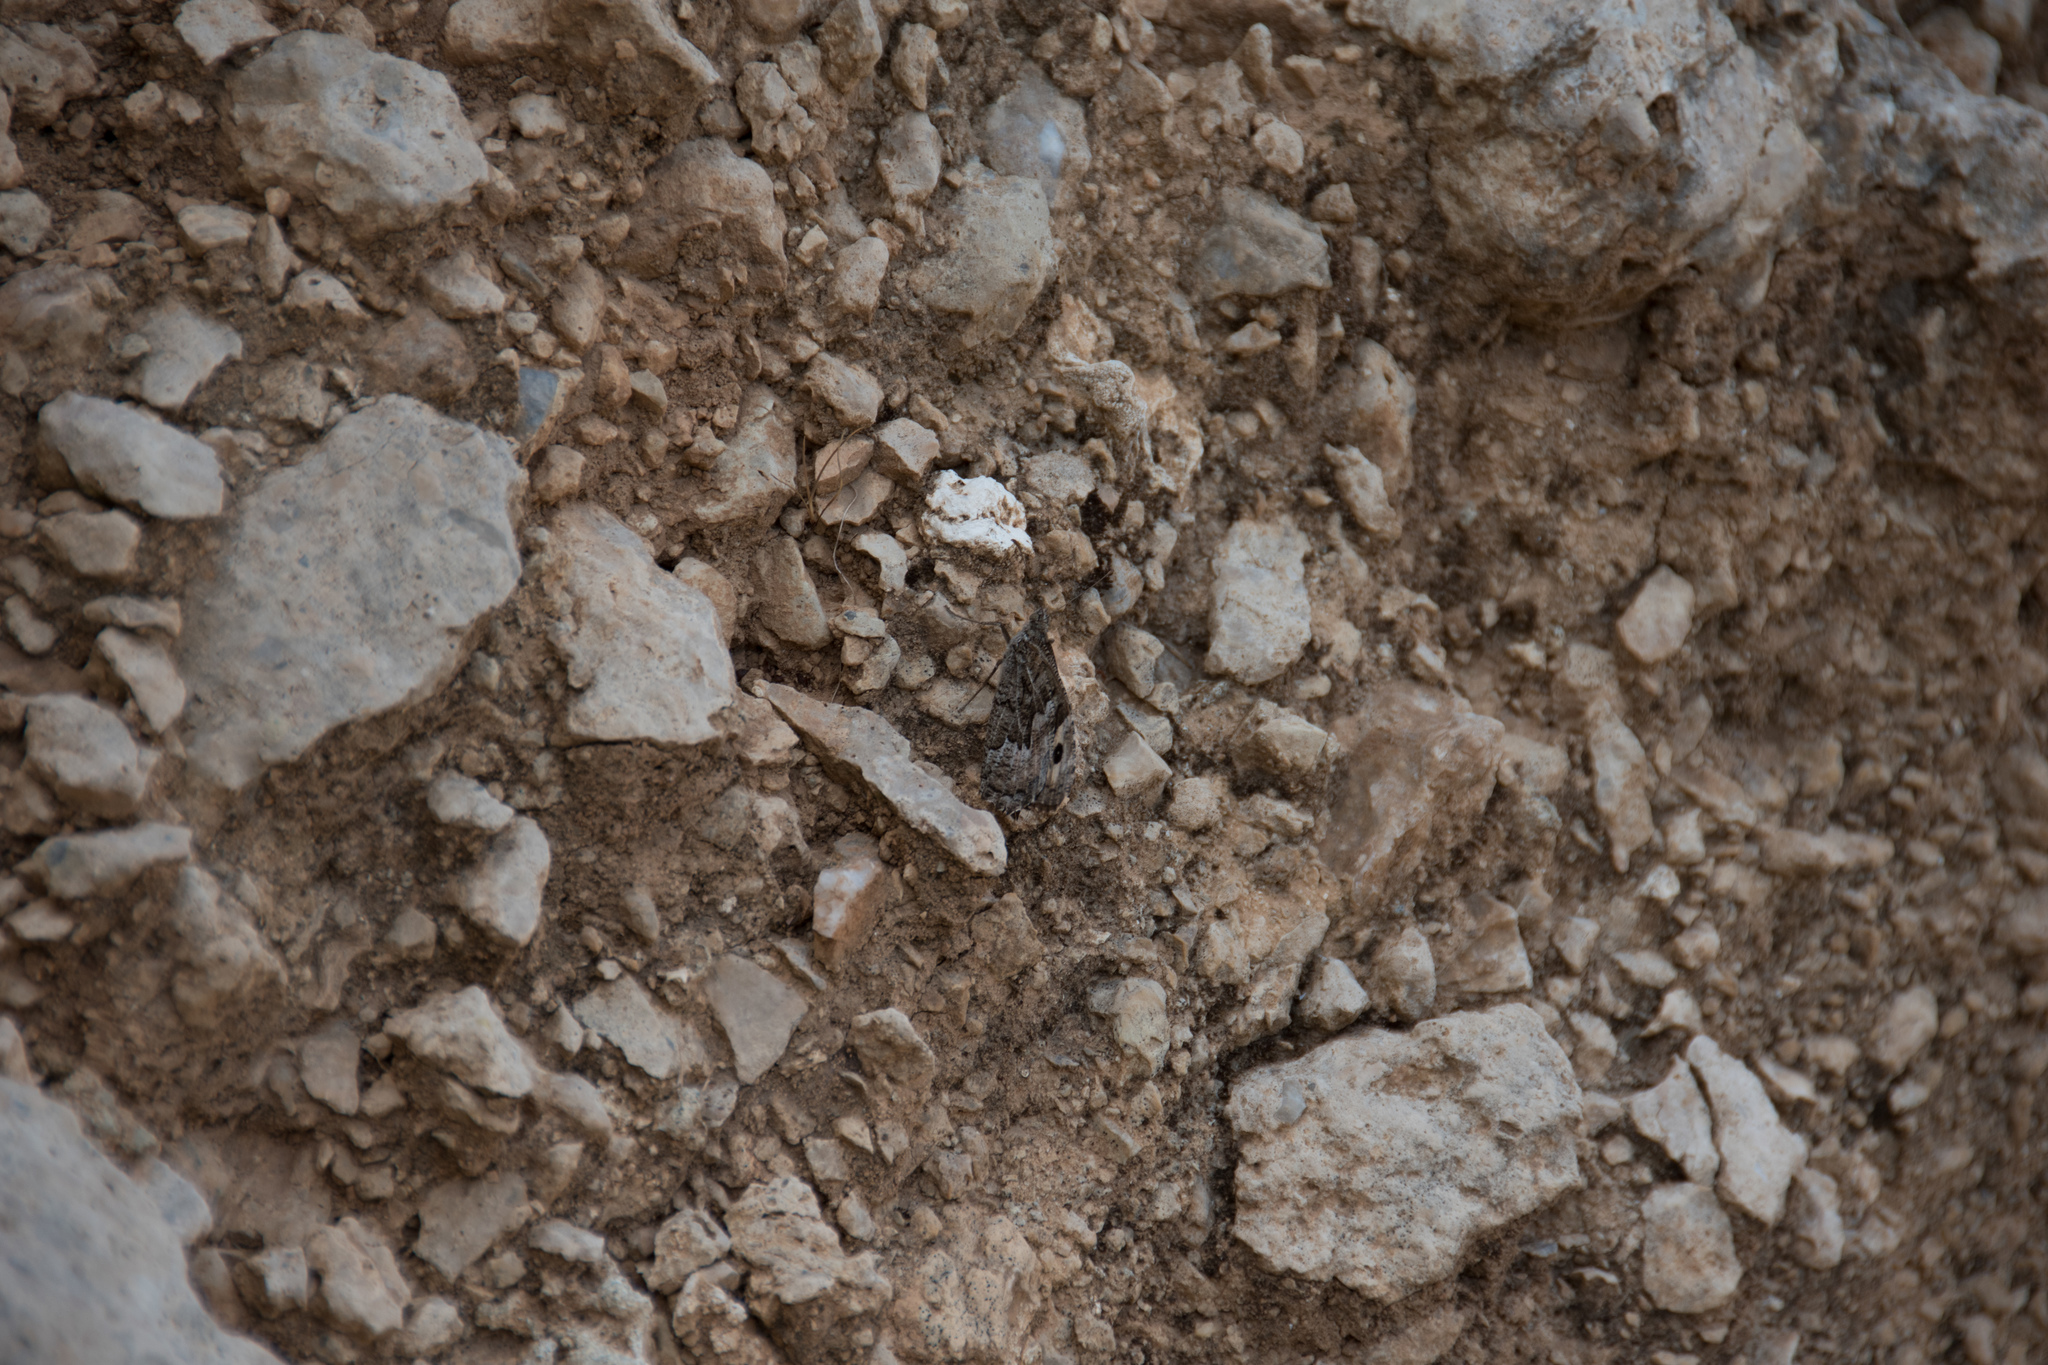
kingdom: Animalia
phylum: Arthropoda
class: Insecta
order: Lepidoptera
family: Nymphalidae
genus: Hipparchia
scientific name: Hipparchia cretica
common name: Cretan grayling
